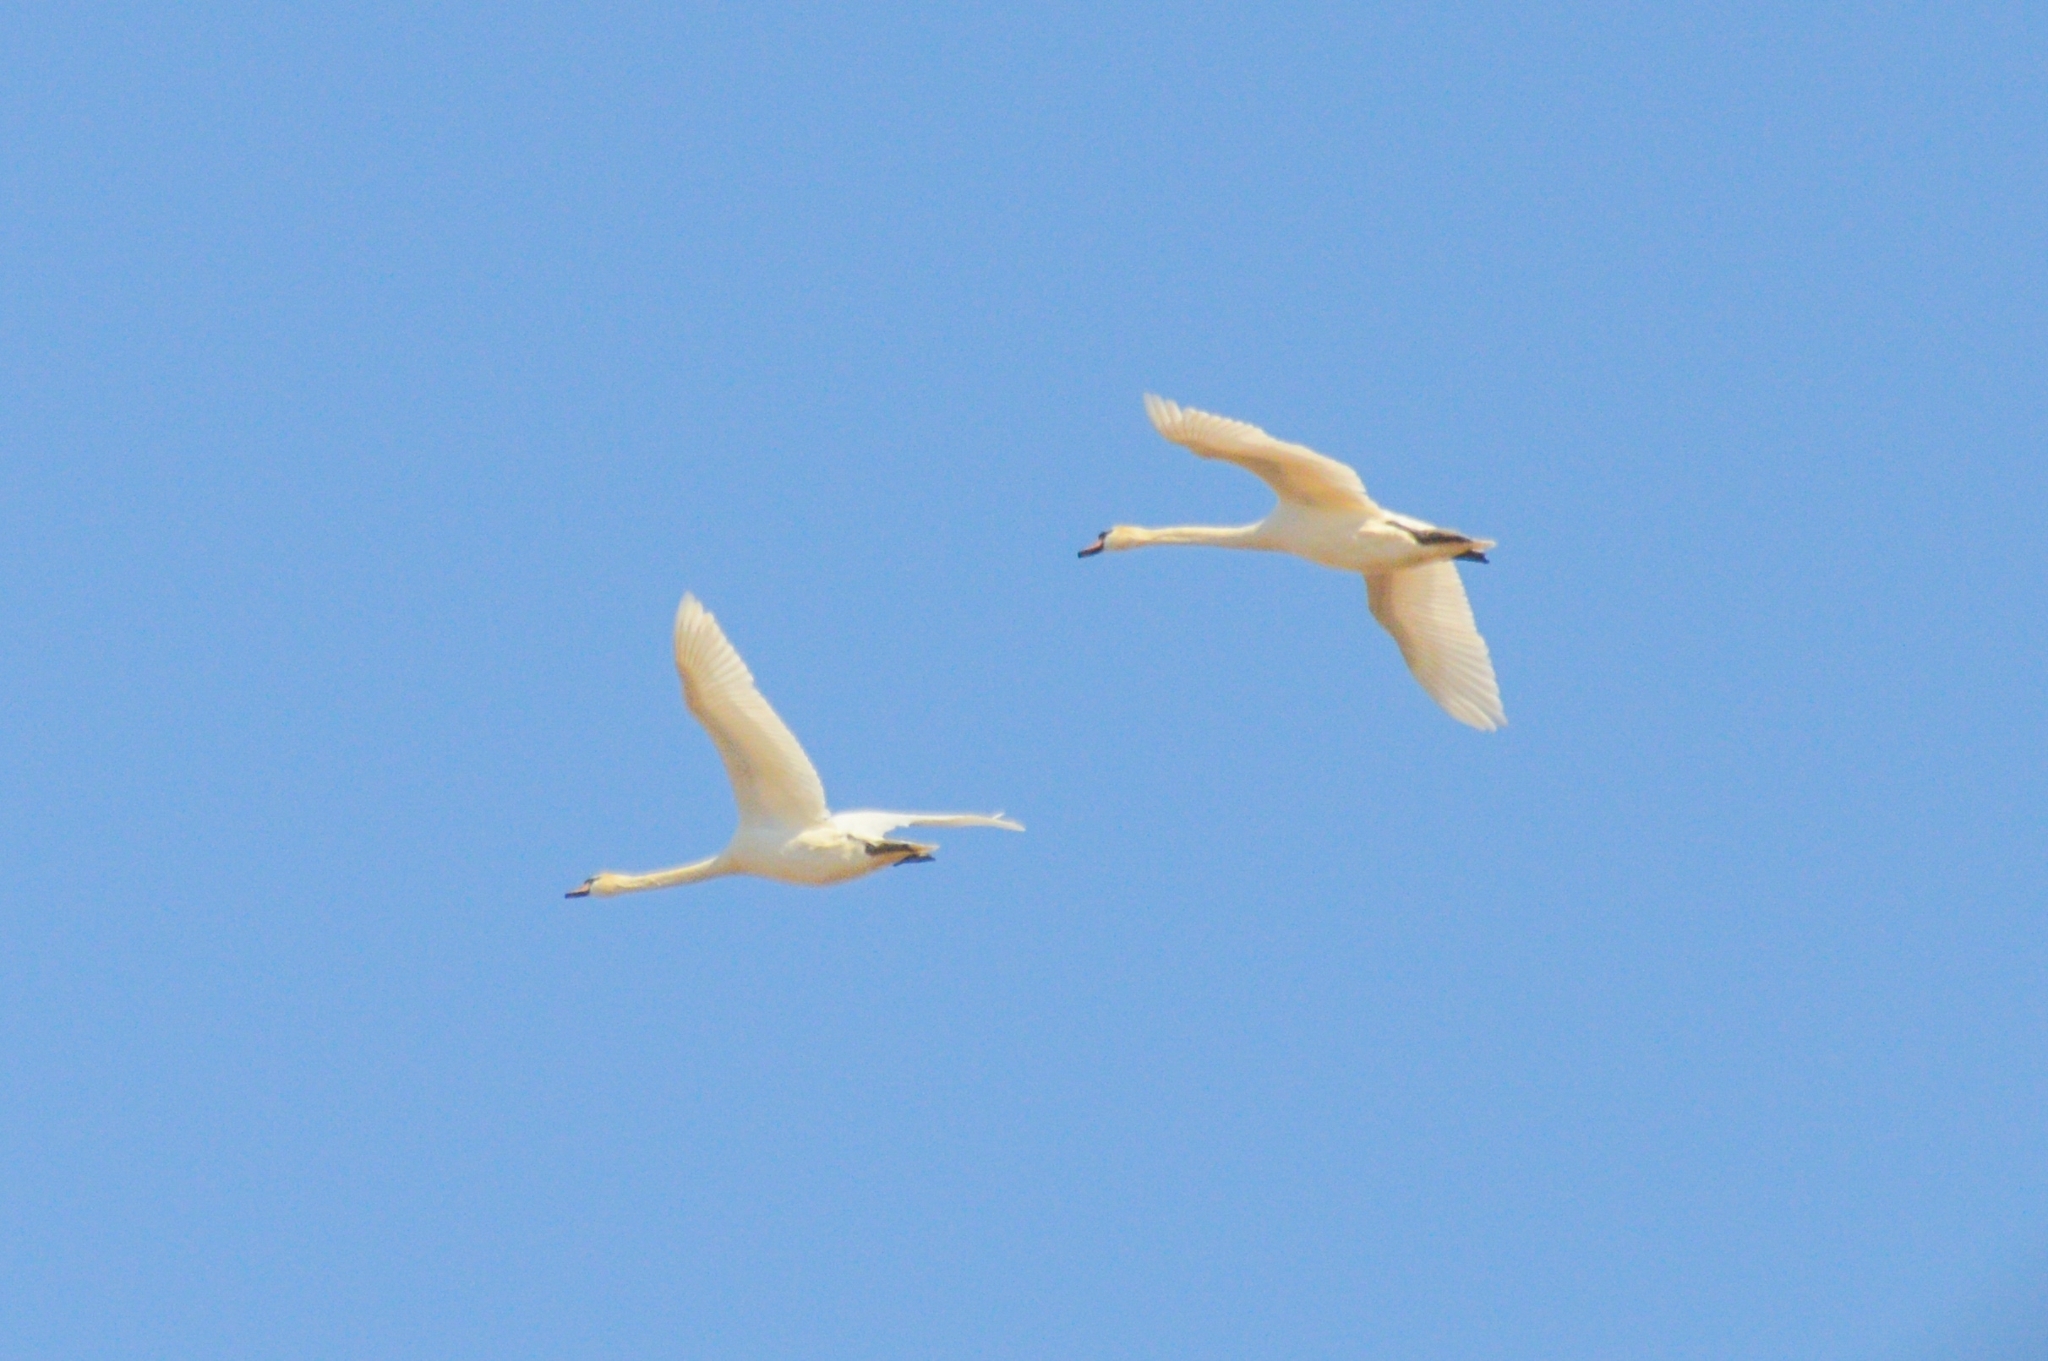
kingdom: Animalia
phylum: Chordata
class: Aves
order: Anseriformes
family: Anatidae
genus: Cygnus
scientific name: Cygnus olor
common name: Mute swan
